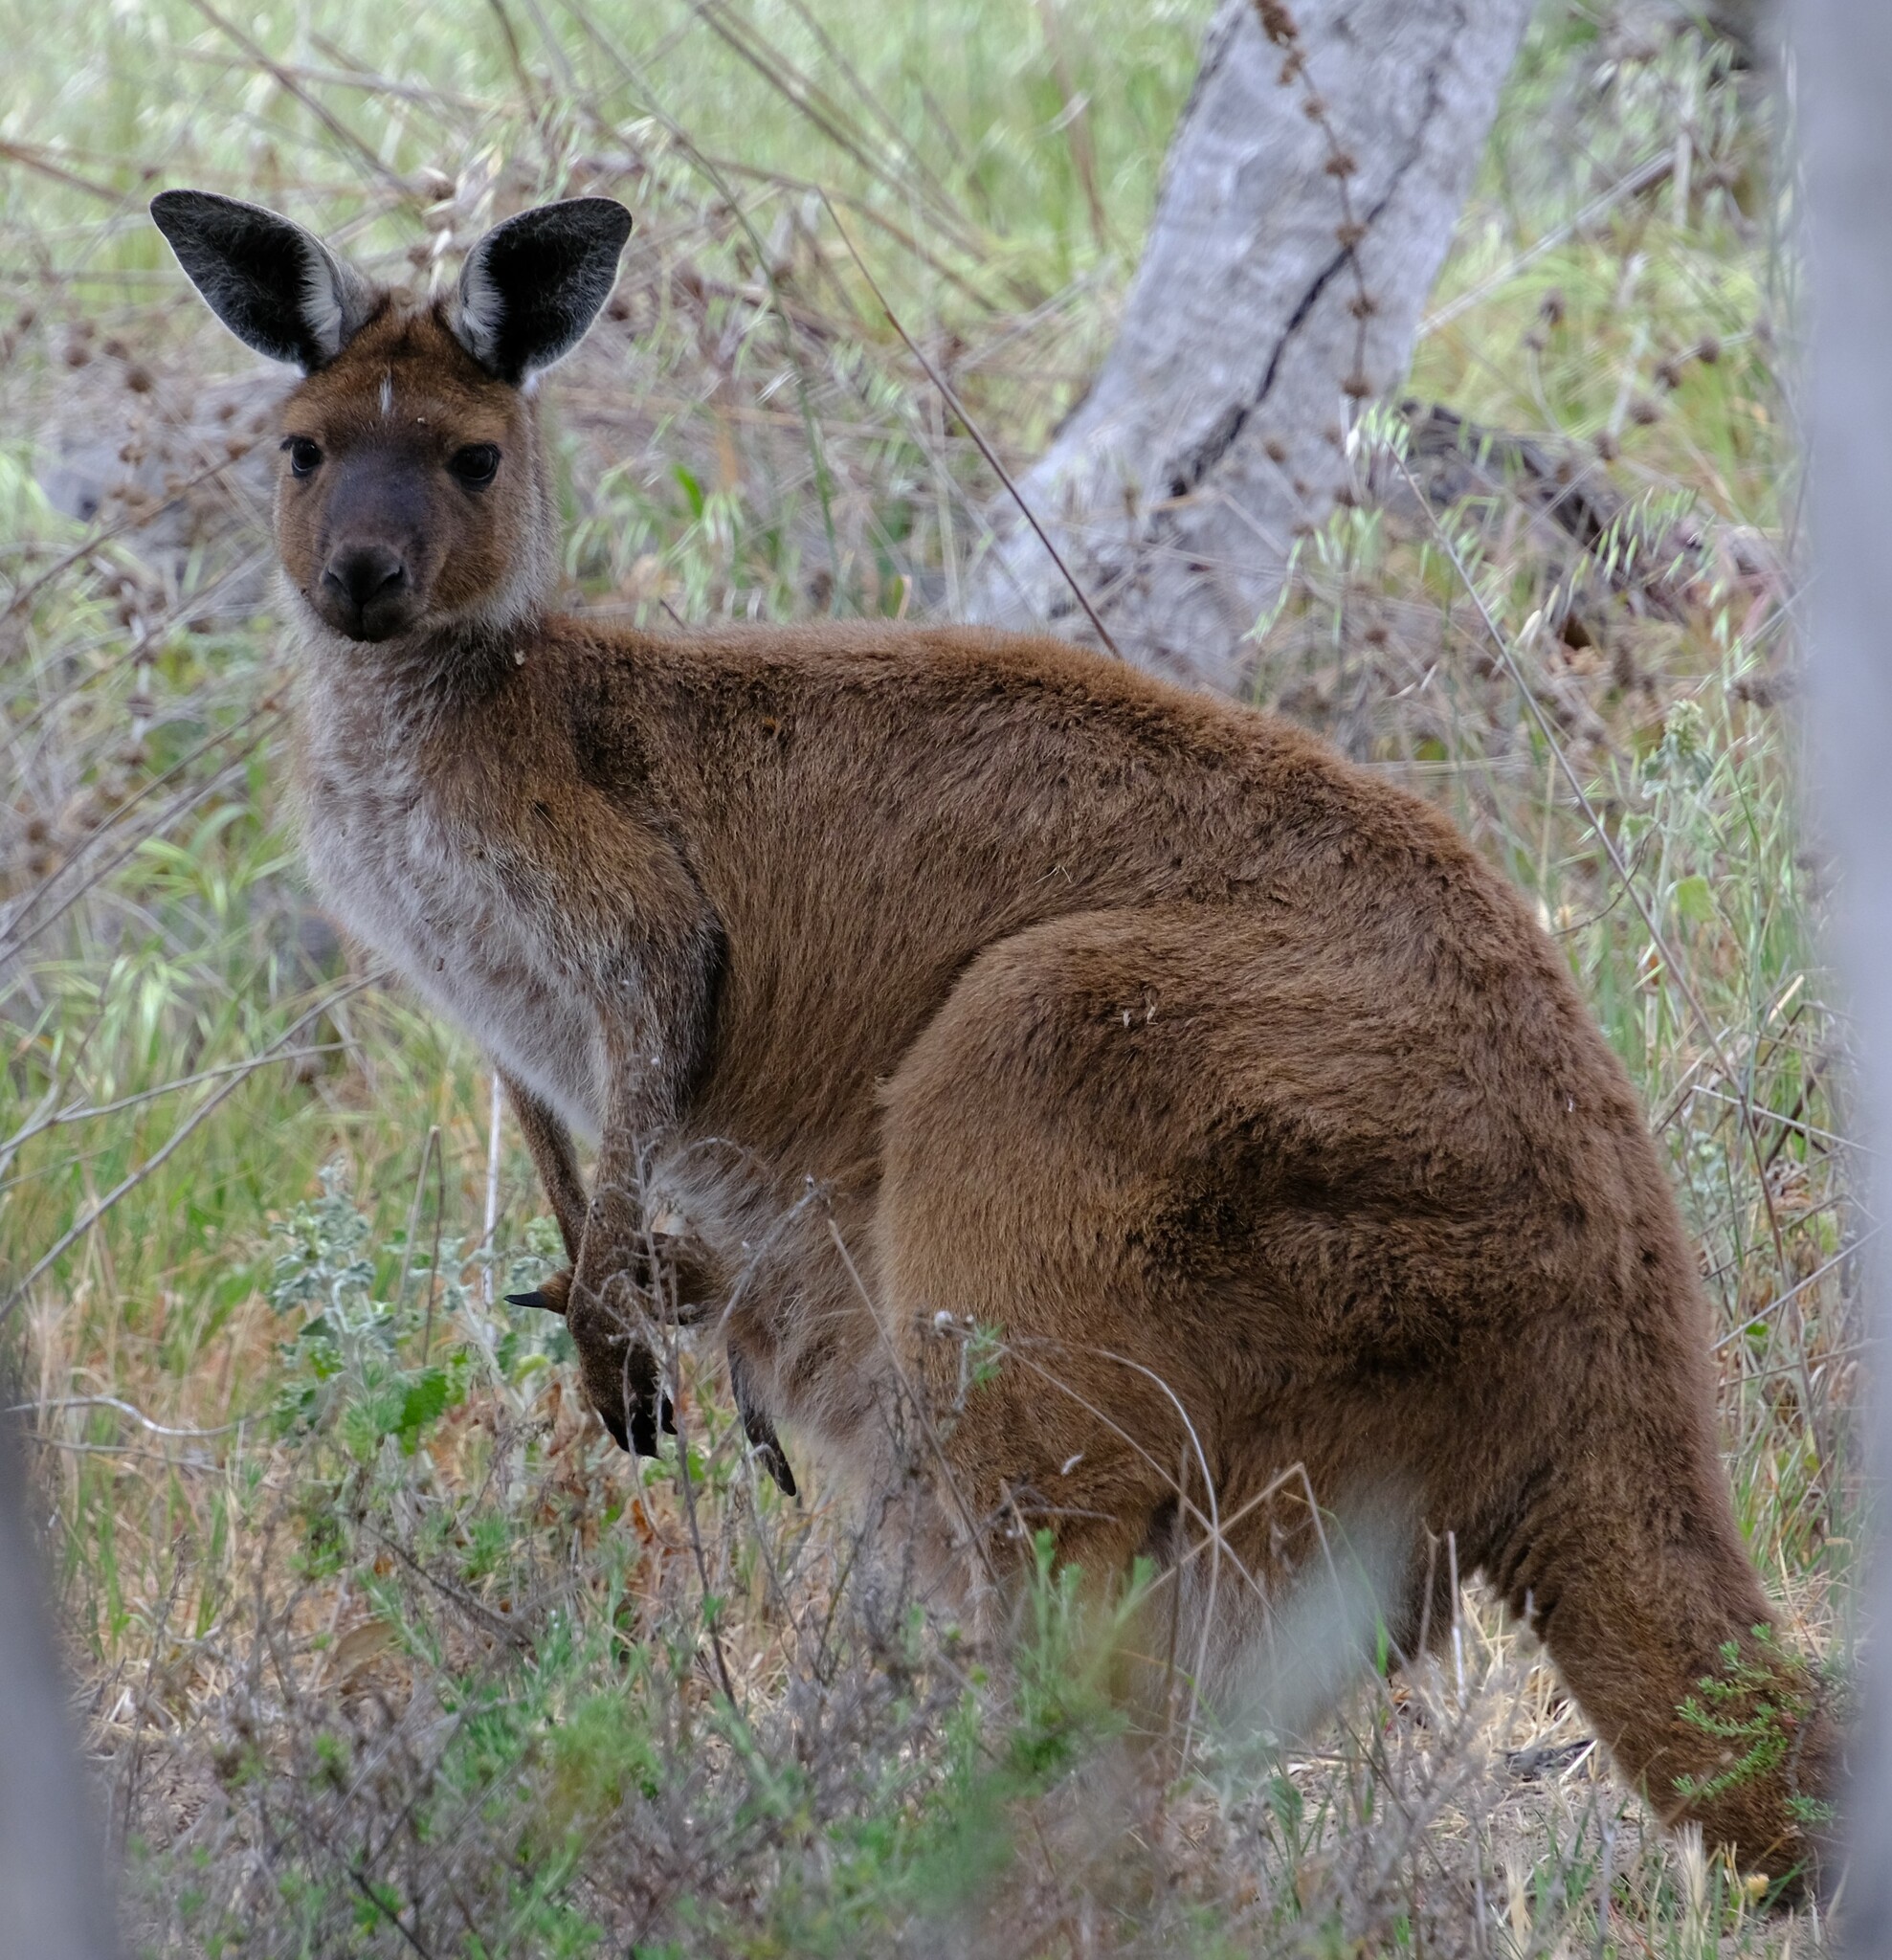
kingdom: Animalia
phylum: Chordata
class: Mammalia
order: Diprotodontia
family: Macropodidae
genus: Macropus
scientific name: Macropus fuliginosus
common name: Western grey kangaroo
